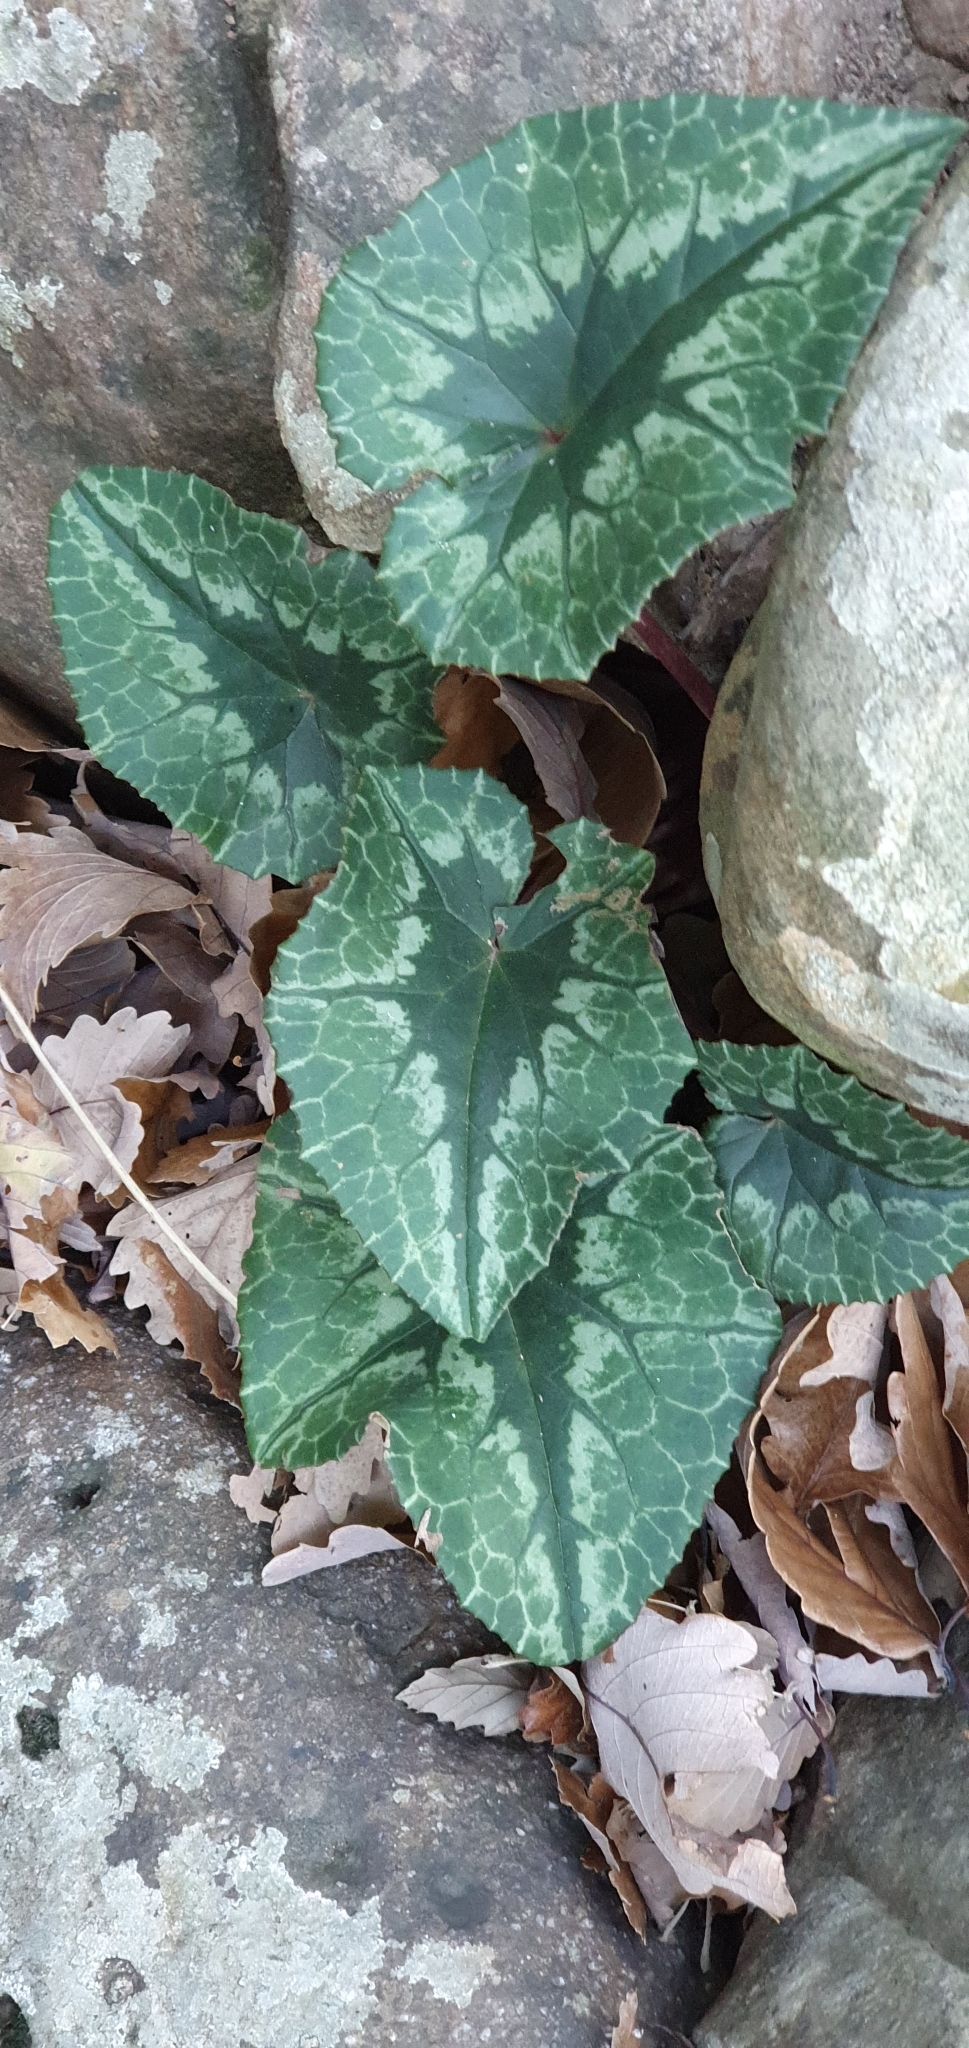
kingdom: Plantae
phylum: Tracheophyta
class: Magnoliopsida
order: Ericales
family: Primulaceae
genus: Cyclamen
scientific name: Cyclamen africanum
